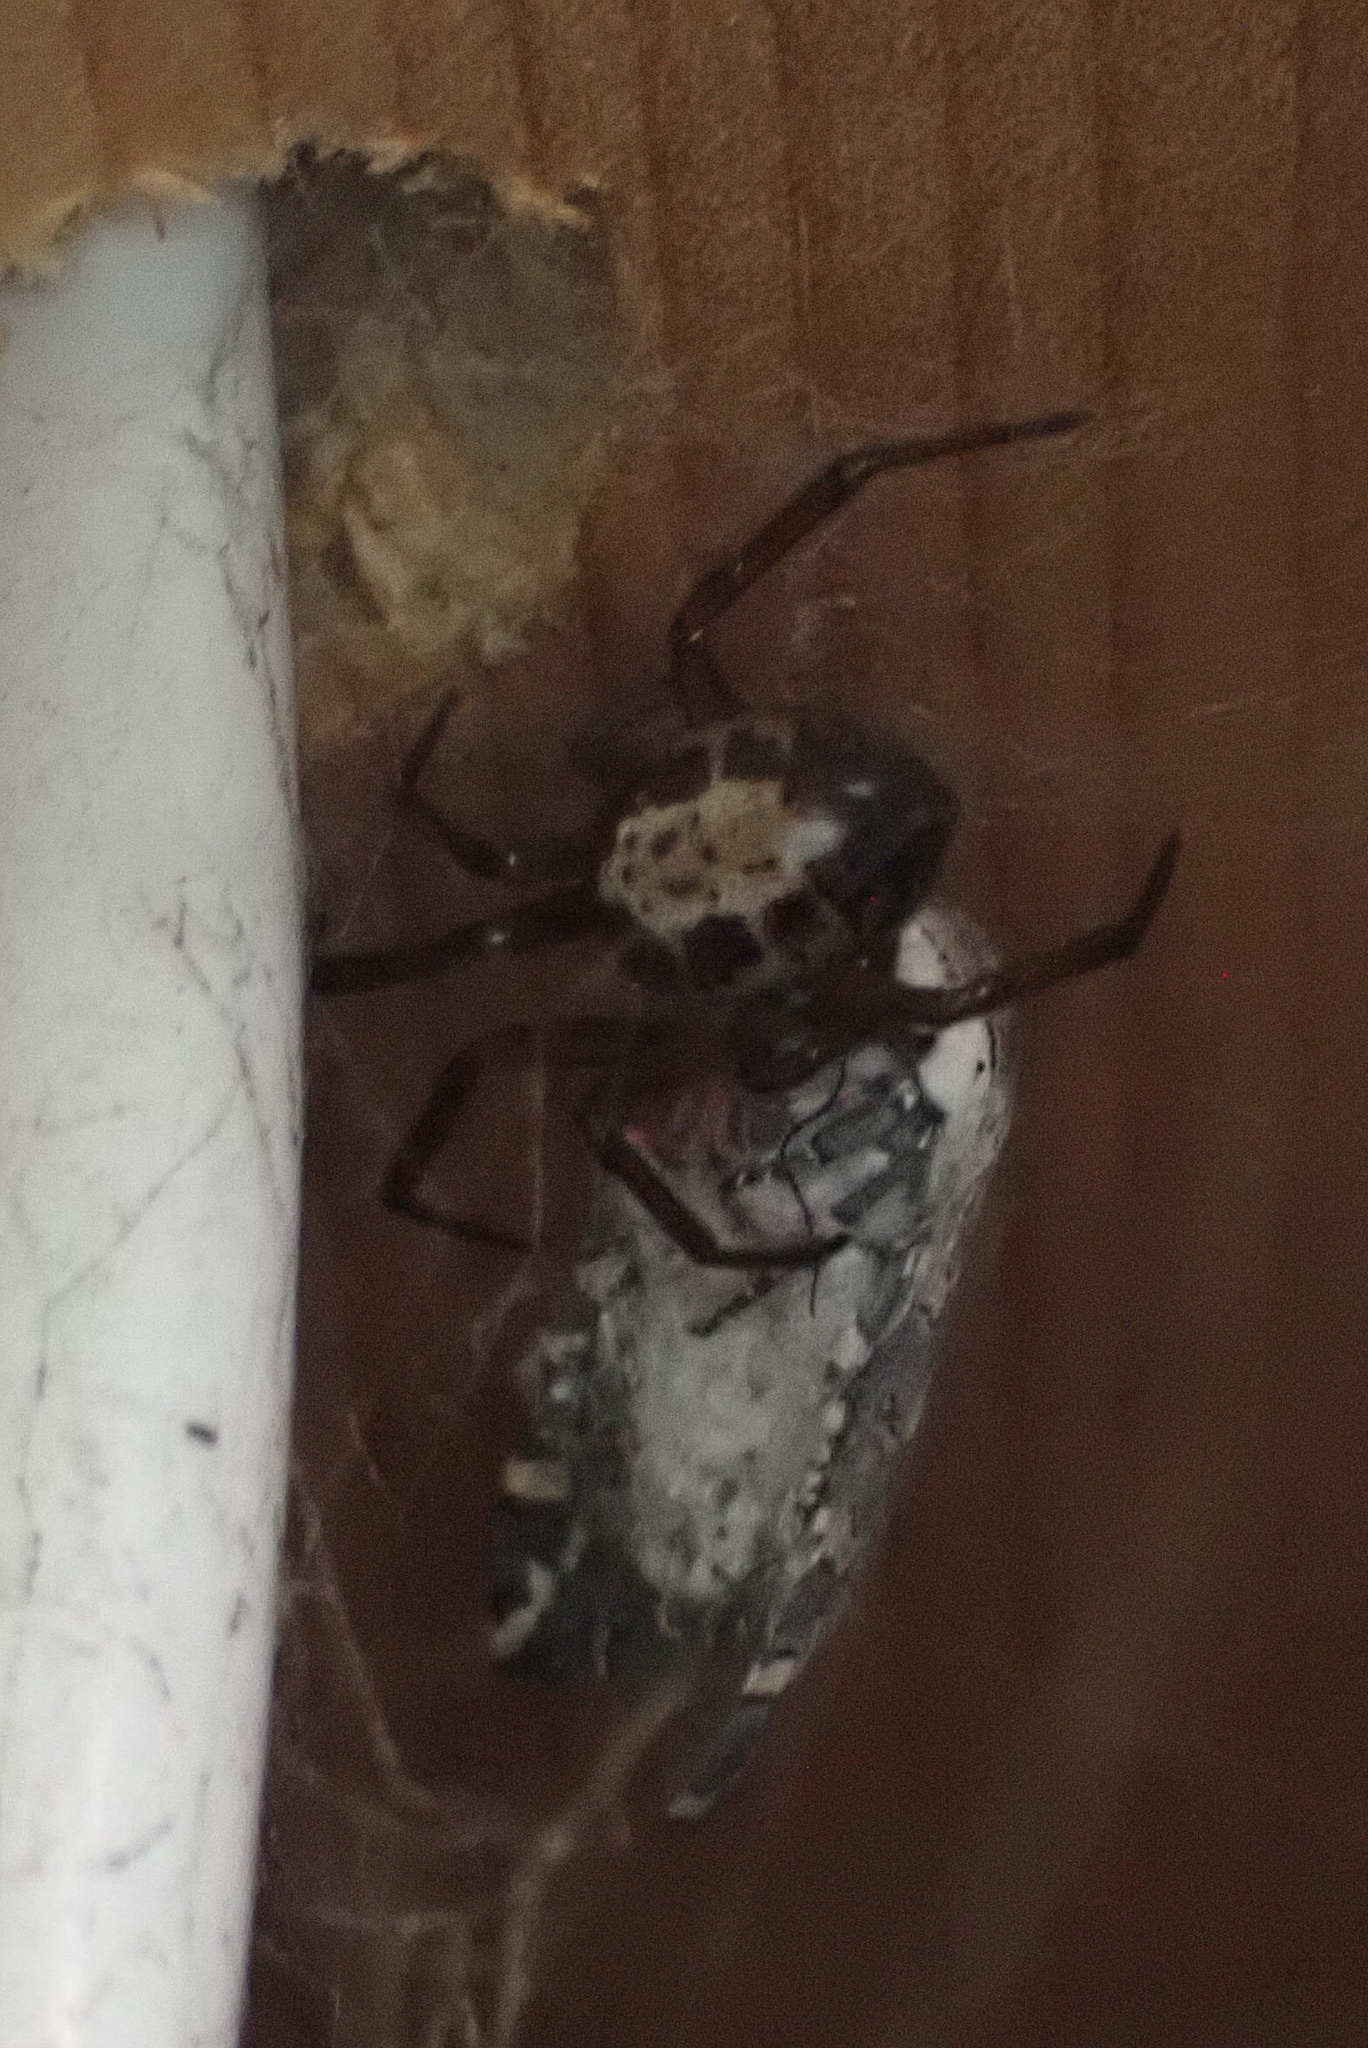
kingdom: Animalia
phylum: Arthropoda
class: Arachnida
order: Araneae
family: Theridiidae
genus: Steatoda
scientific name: Steatoda nobilis
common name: Cobweb weaver
